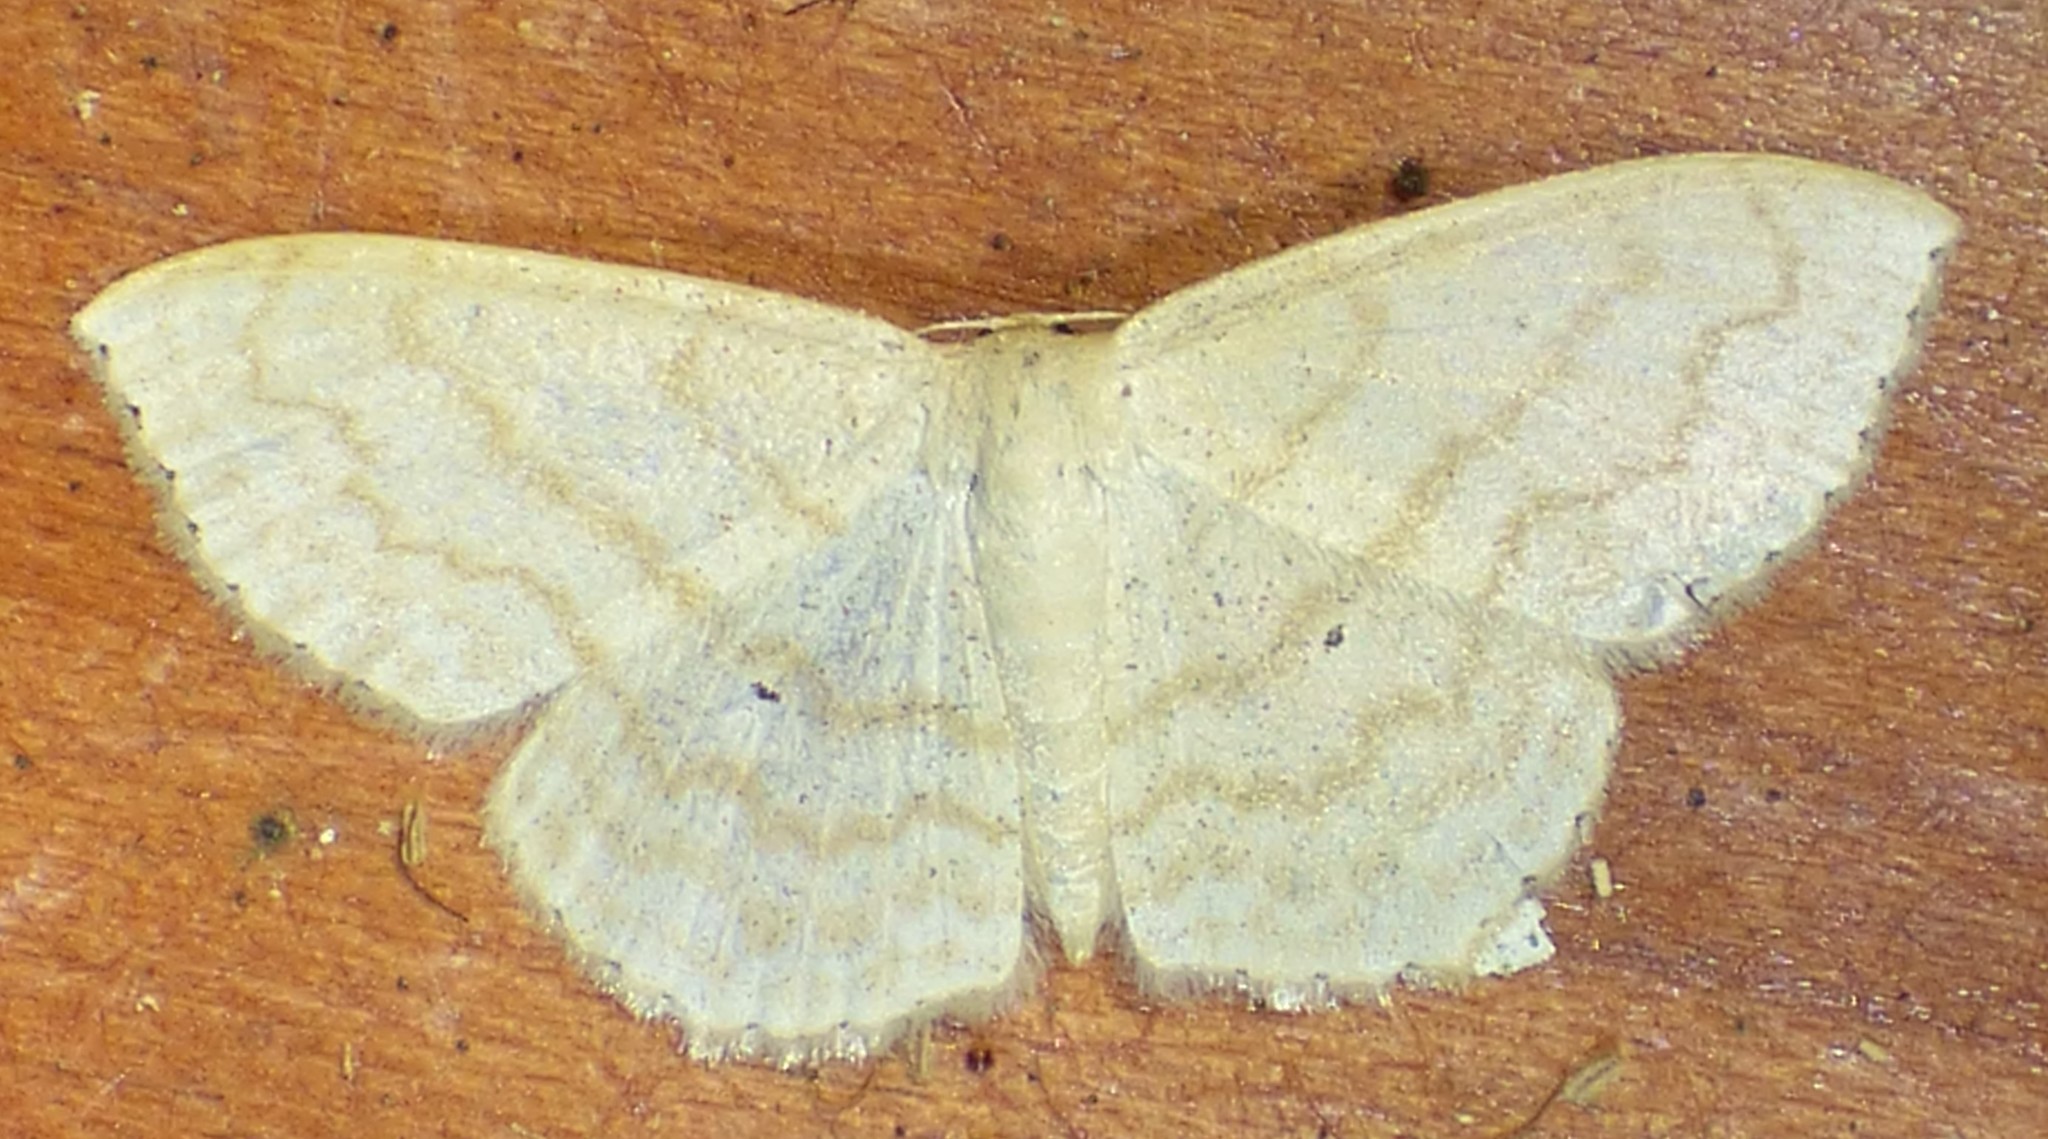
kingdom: Animalia
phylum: Arthropoda
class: Insecta
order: Lepidoptera
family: Geometridae
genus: Scopula
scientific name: Scopula limboundata
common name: Large lace border
